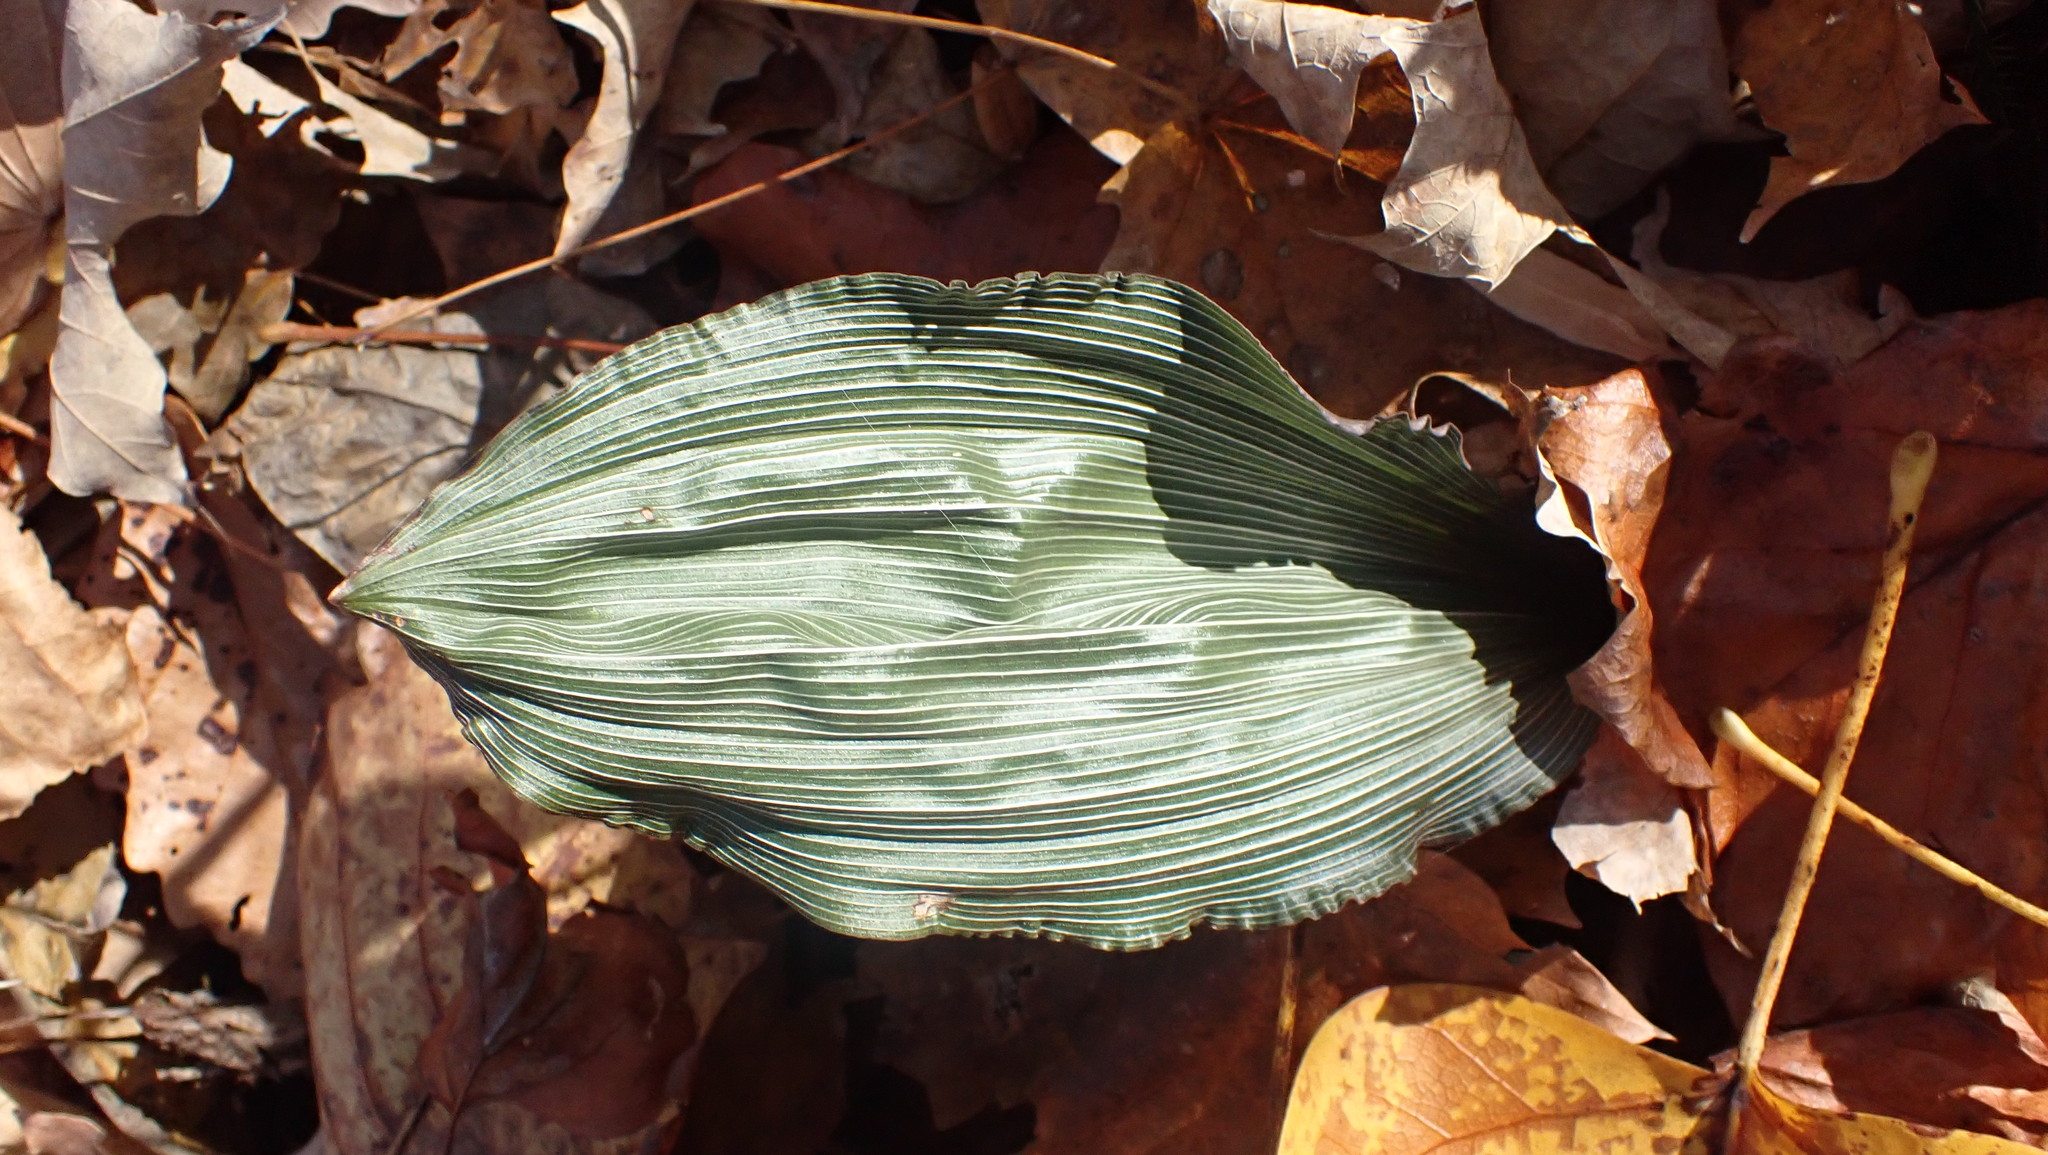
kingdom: Plantae
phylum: Tracheophyta
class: Liliopsida
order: Asparagales
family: Orchidaceae
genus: Aplectrum
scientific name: Aplectrum hyemale
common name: Adam-and-eve
